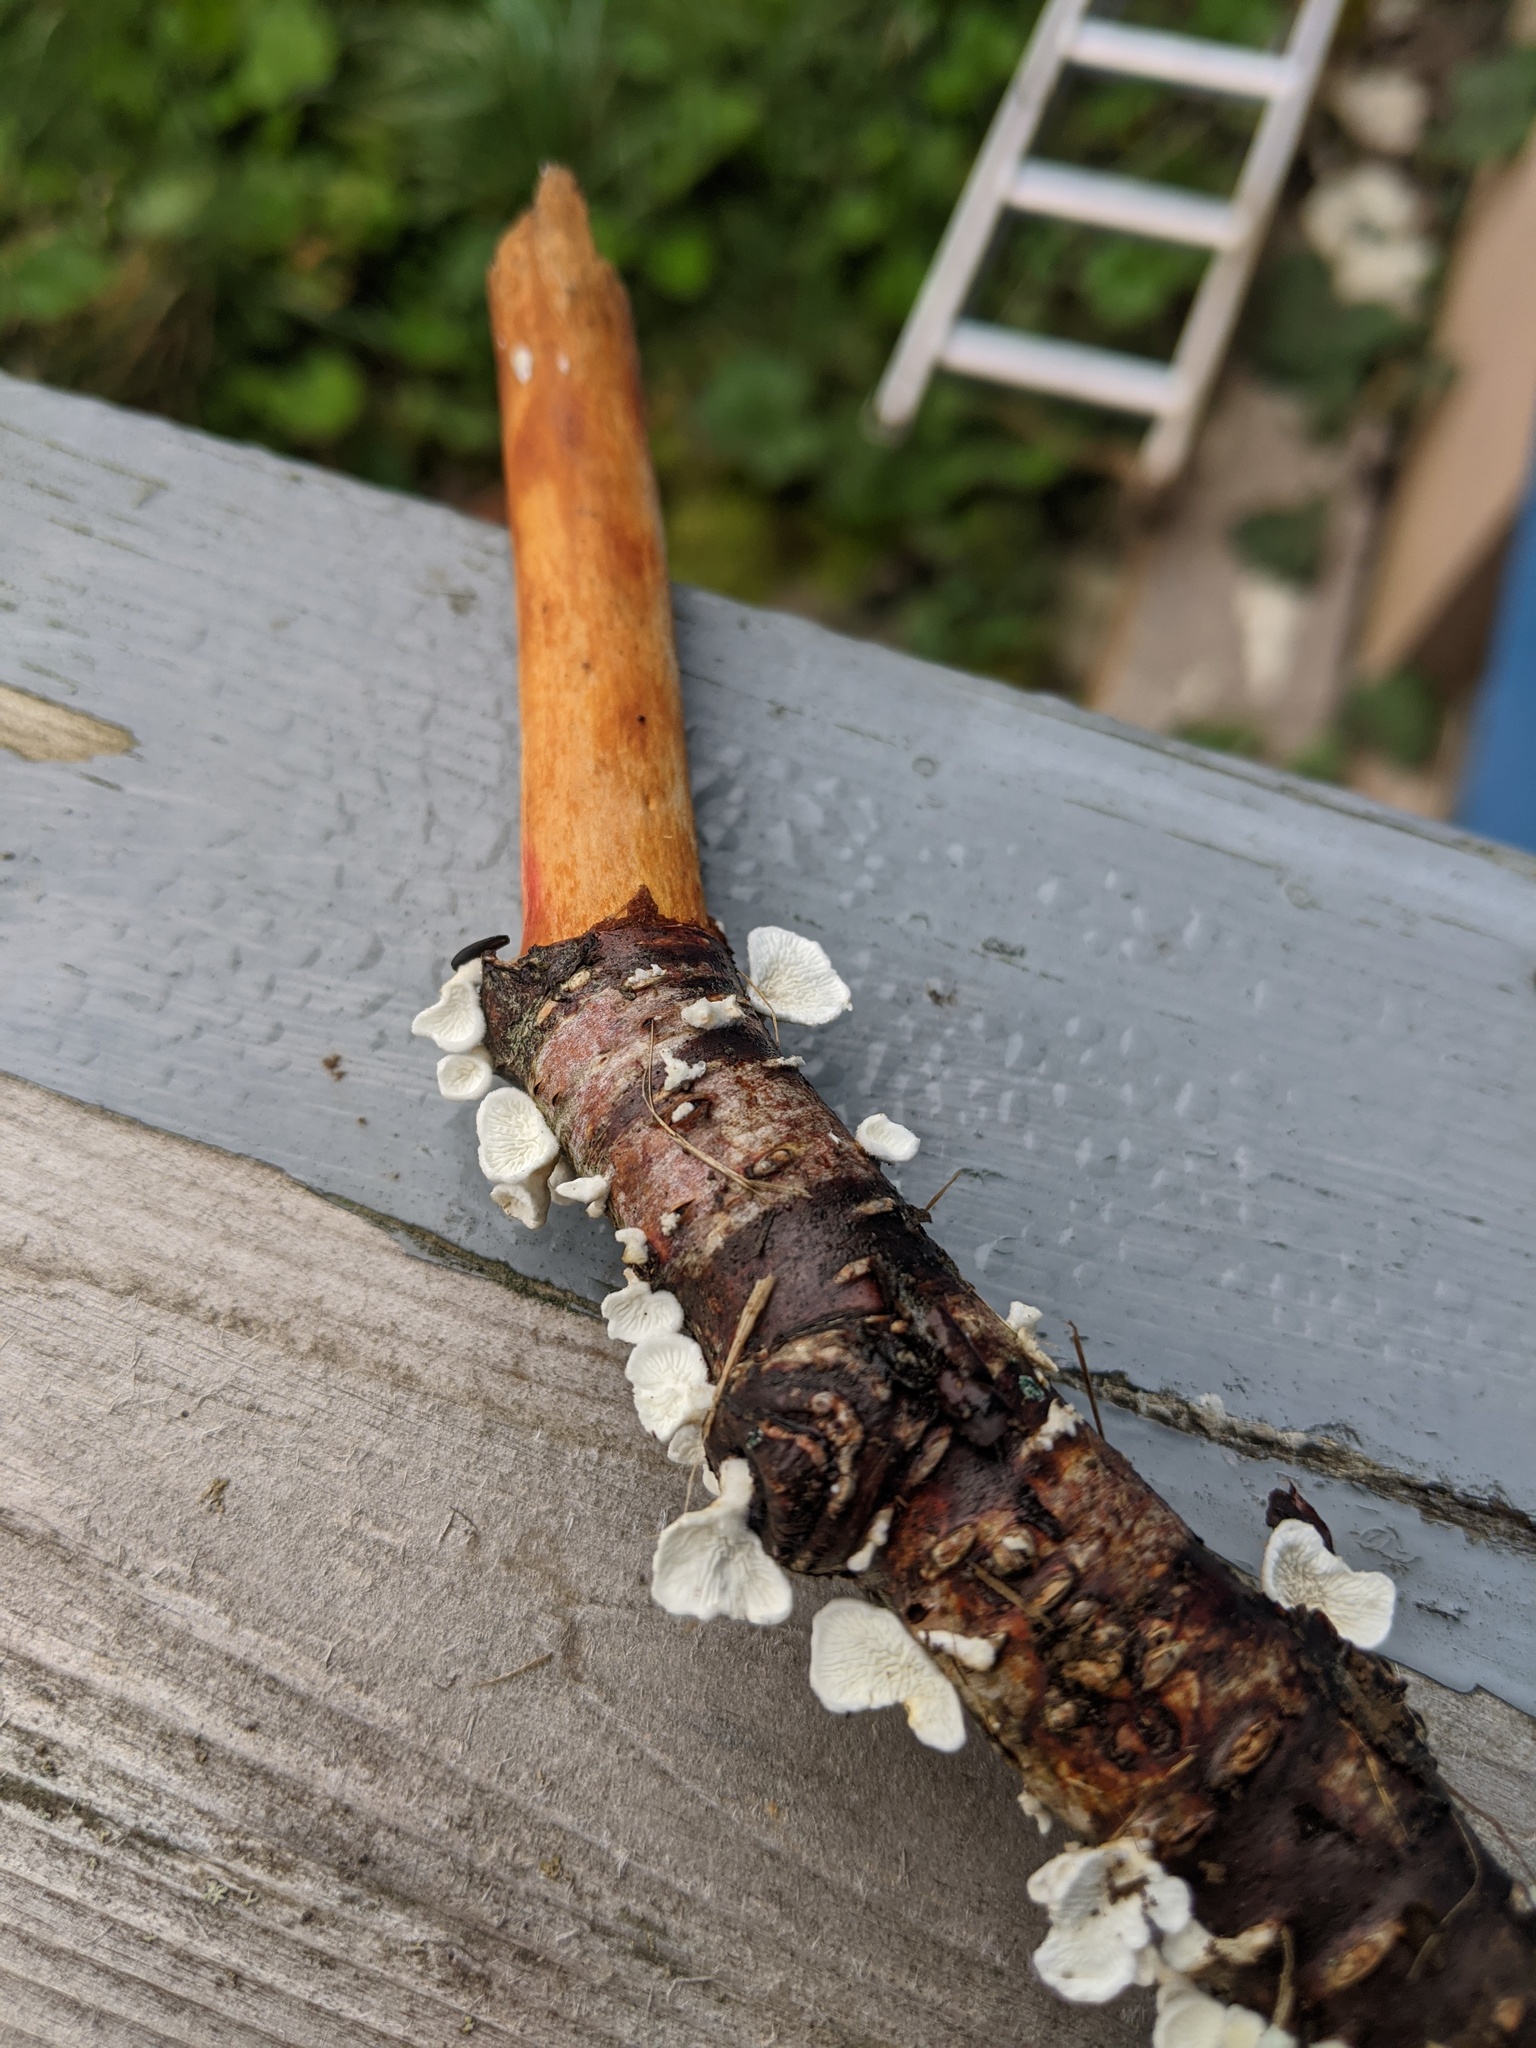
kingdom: Fungi
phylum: Basidiomycota
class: Agaricomycetes
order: Amylocorticiales
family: Amylocorticiaceae
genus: Plicaturopsis
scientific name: Plicaturopsis crispa
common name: Crimped gill
